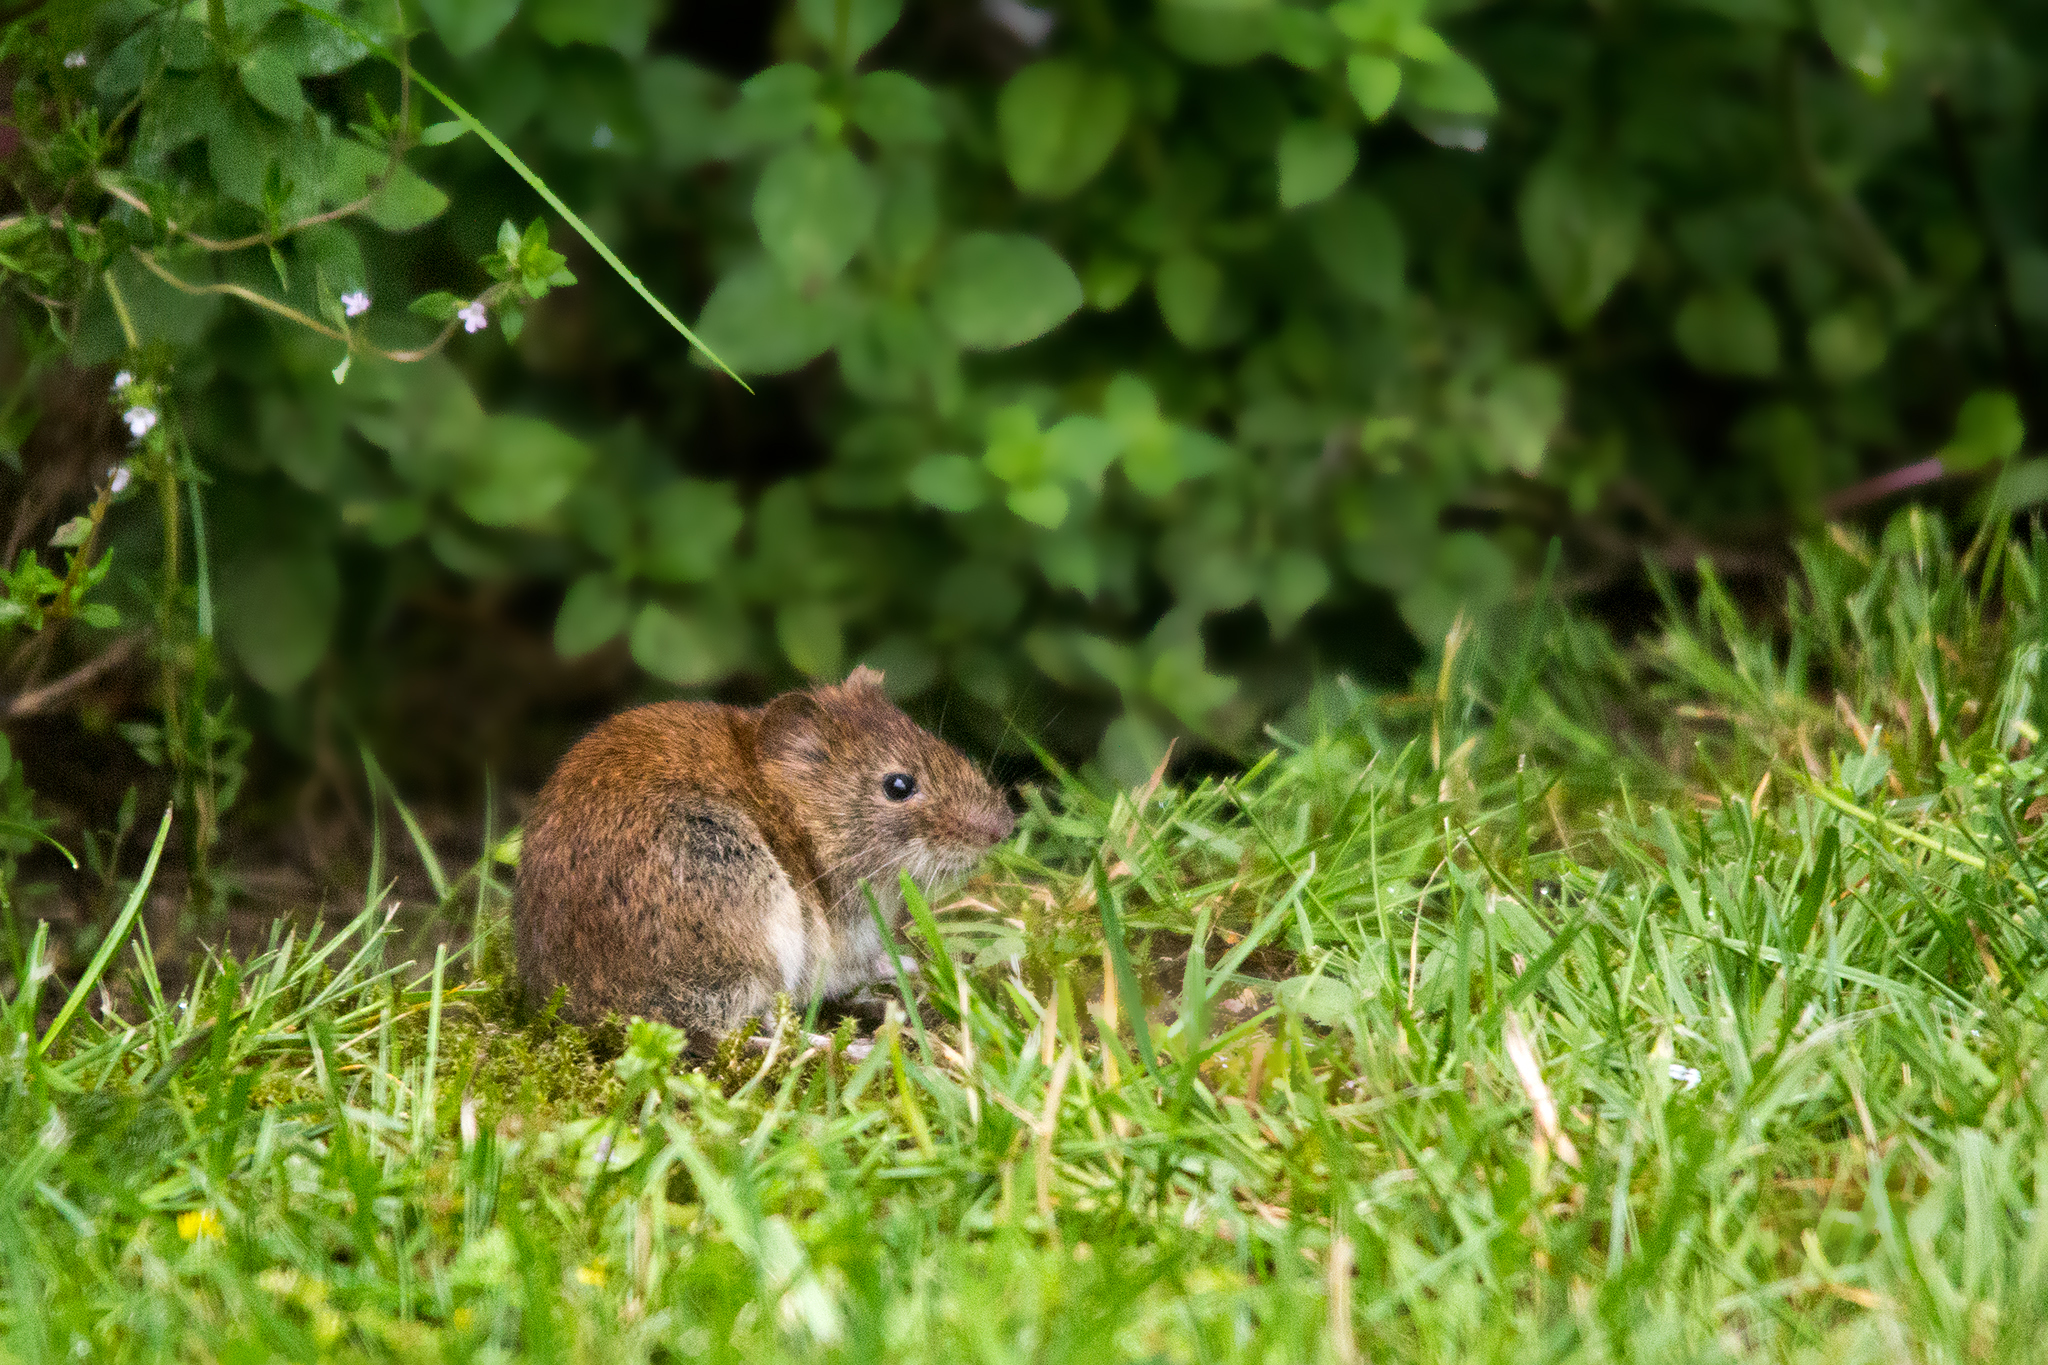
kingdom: Animalia
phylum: Chordata
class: Mammalia
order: Rodentia
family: Cricetidae
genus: Myodes
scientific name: Myodes glareolus
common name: Bank vole
